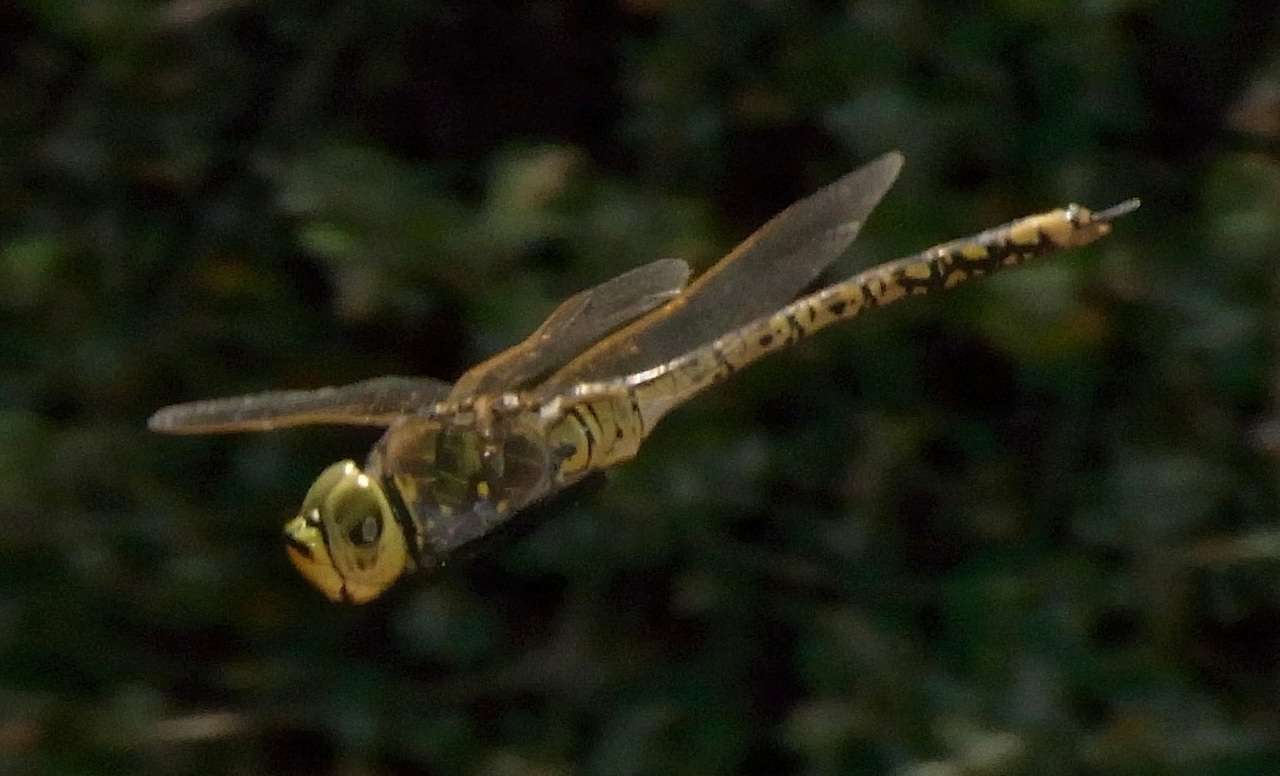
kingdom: Animalia
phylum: Arthropoda
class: Insecta
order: Odonata
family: Aeshnidae
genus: Anax
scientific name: Anax papuensis
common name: Australian emperor
